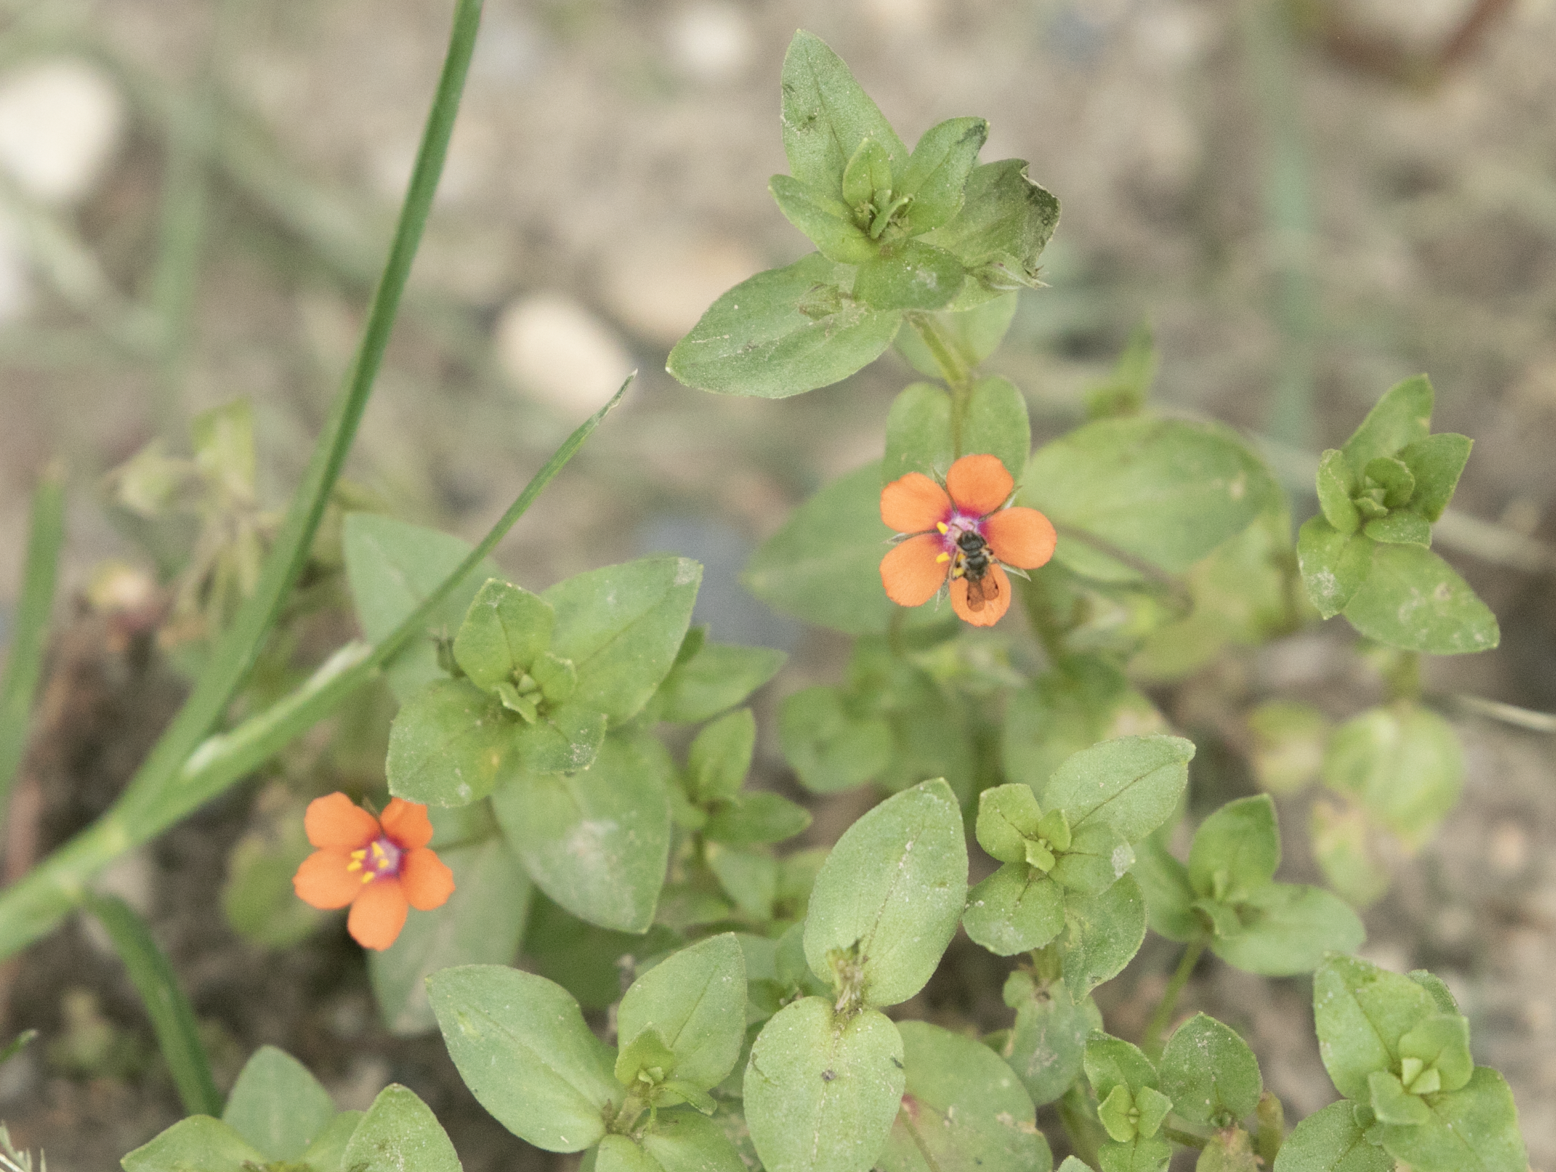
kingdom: Plantae
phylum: Tracheophyta
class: Magnoliopsida
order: Ericales
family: Primulaceae
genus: Lysimachia
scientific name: Lysimachia arvensis
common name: Scarlet pimpernel
